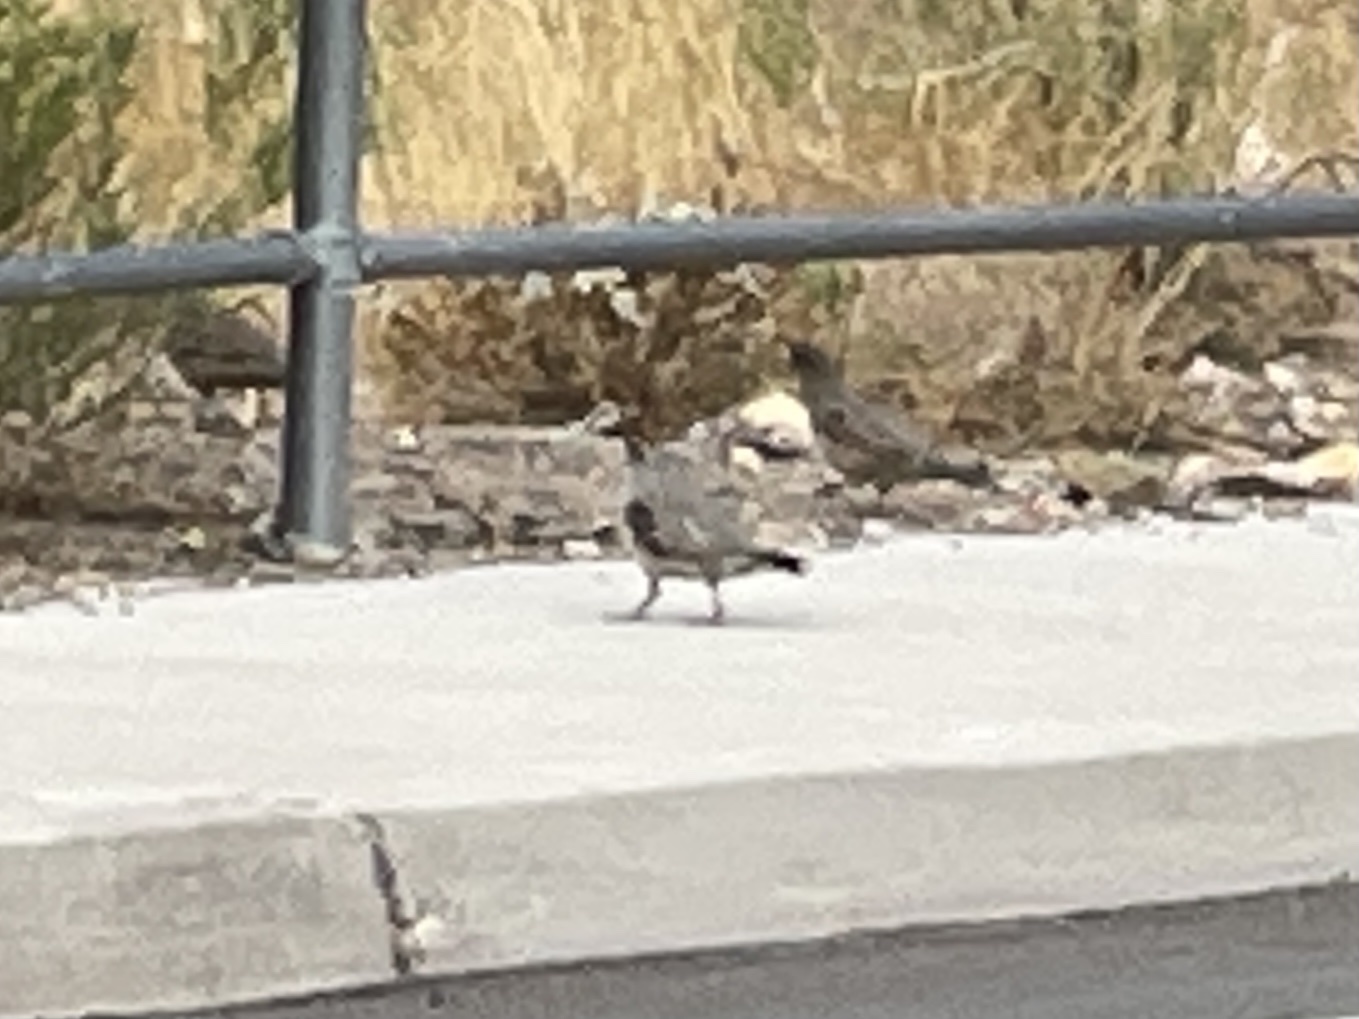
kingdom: Animalia
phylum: Chordata
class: Aves
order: Galliformes
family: Odontophoridae
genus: Callipepla
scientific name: Callipepla gambelii
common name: Gambel's quail
